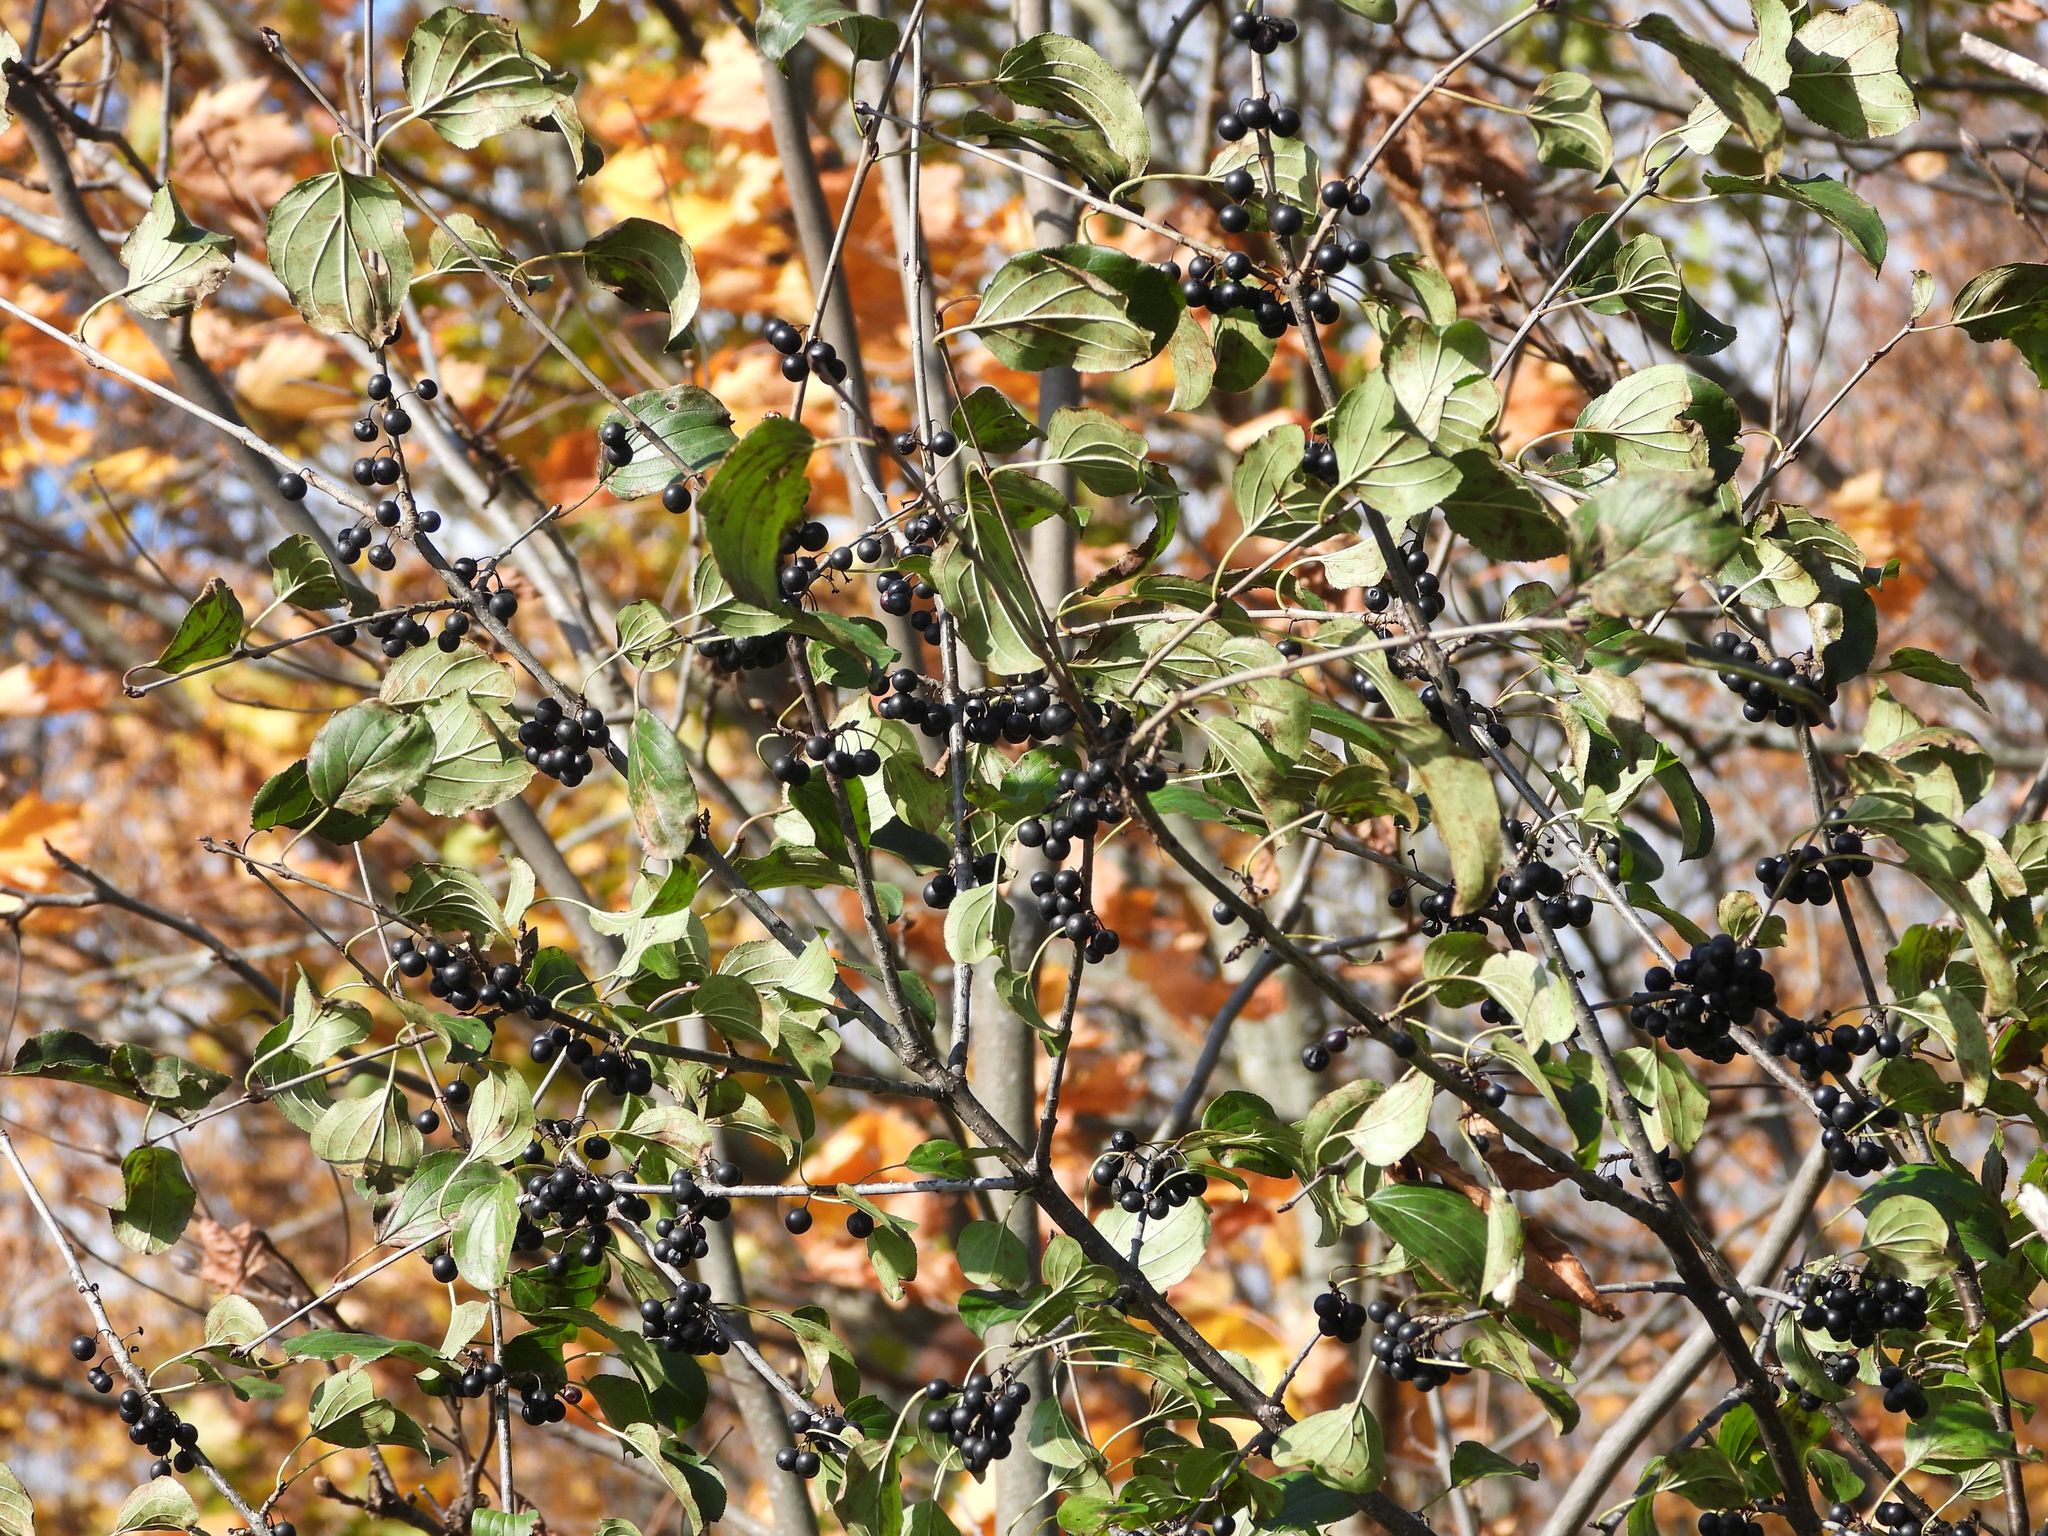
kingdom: Plantae
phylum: Tracheophyta
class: Magnoliopsida
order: Rosales
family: Rhamnaceae
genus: Rhamnus
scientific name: Rhamnus cathartica
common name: Common buckthorn
